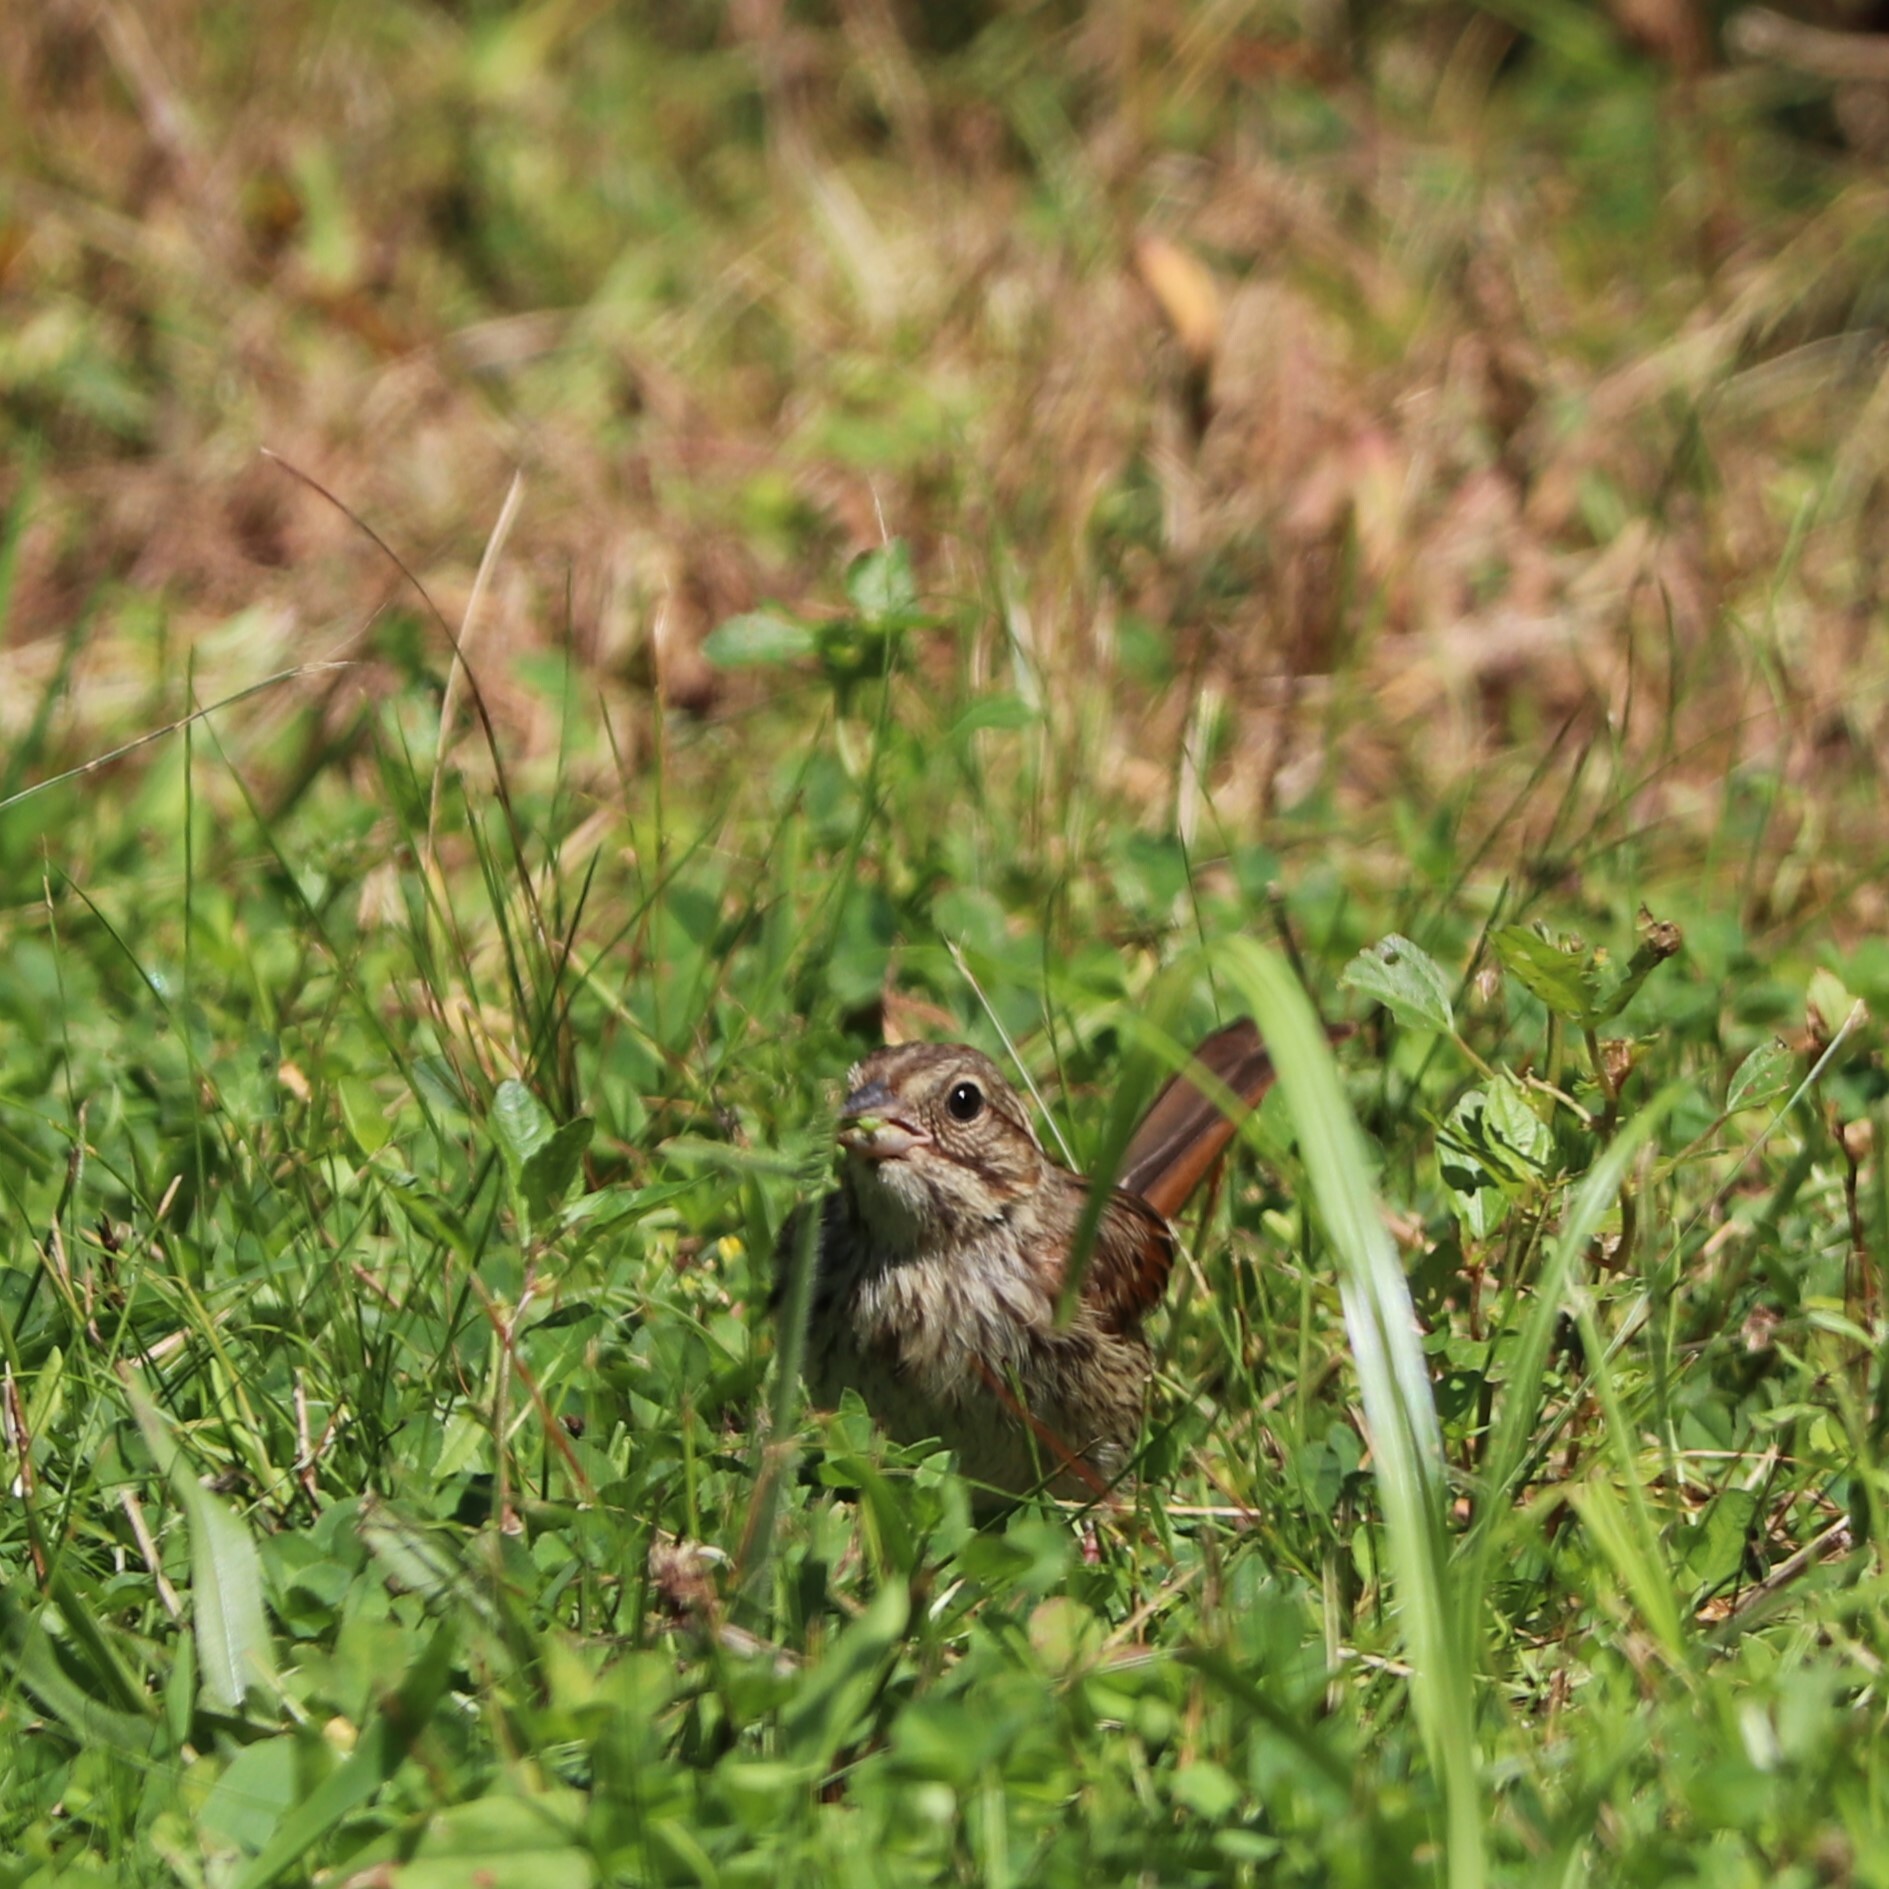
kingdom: Animalia
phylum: Chordata
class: Aves
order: Passeriformes
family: Passerellidae
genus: Melospiza
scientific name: Melospiza melodia
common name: Song sparrow
